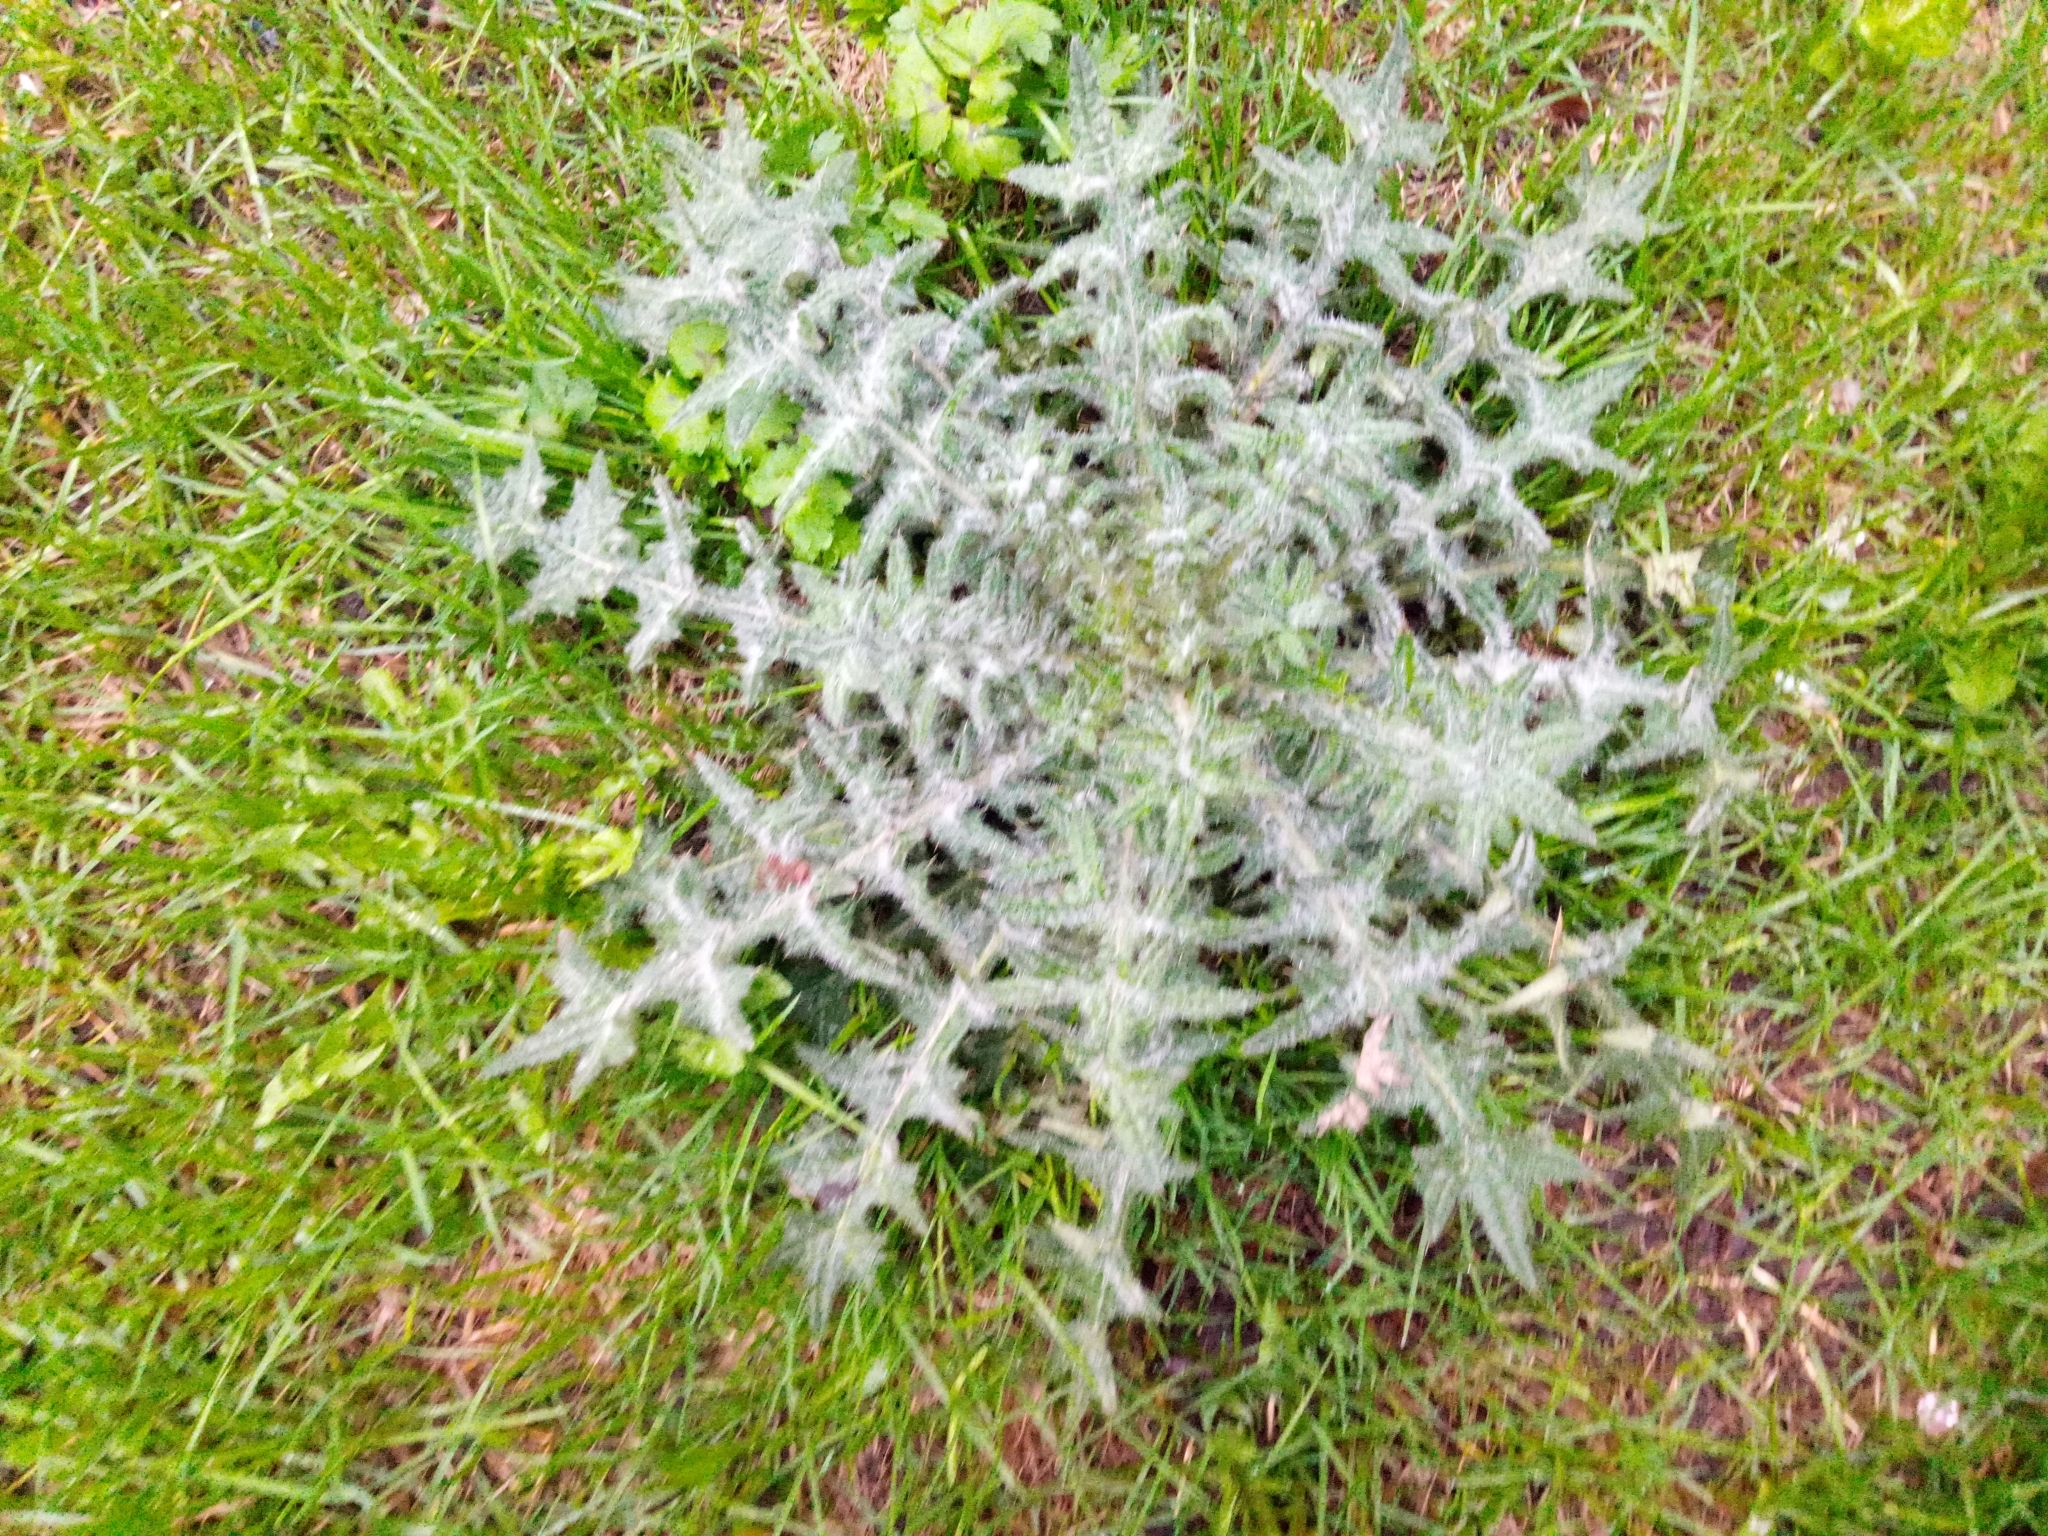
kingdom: Plantae
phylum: Tracheophyta
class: Magnoliopsida
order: Asterales
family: Asteraceae
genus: Cirsium
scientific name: Cirsium vulgare
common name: Bull thistle
